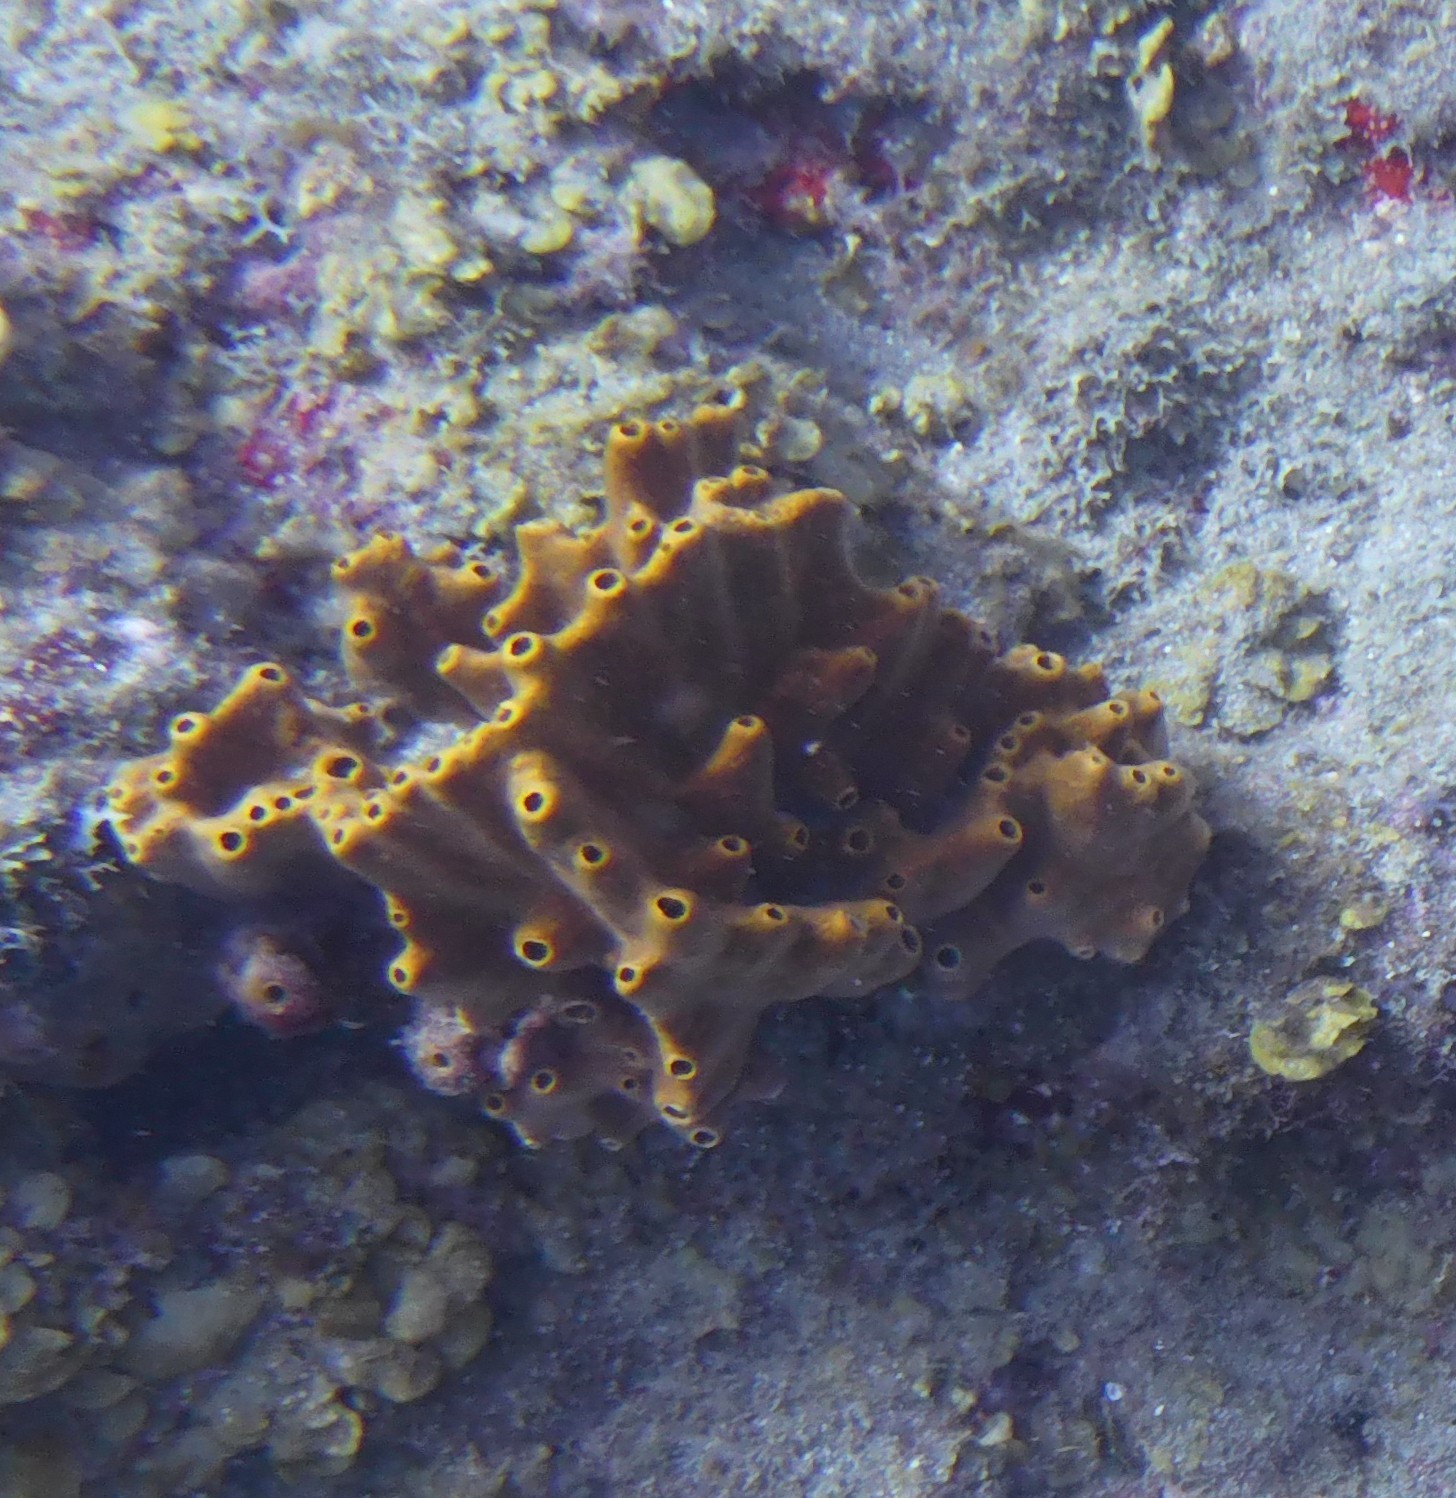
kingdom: Animalia
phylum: Porifera
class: Demospongiae
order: Axinellida
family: Raspailiidae
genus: Ectyoplasia
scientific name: Ectyoplasia ferox
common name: Brown encrusting octopus sponge
